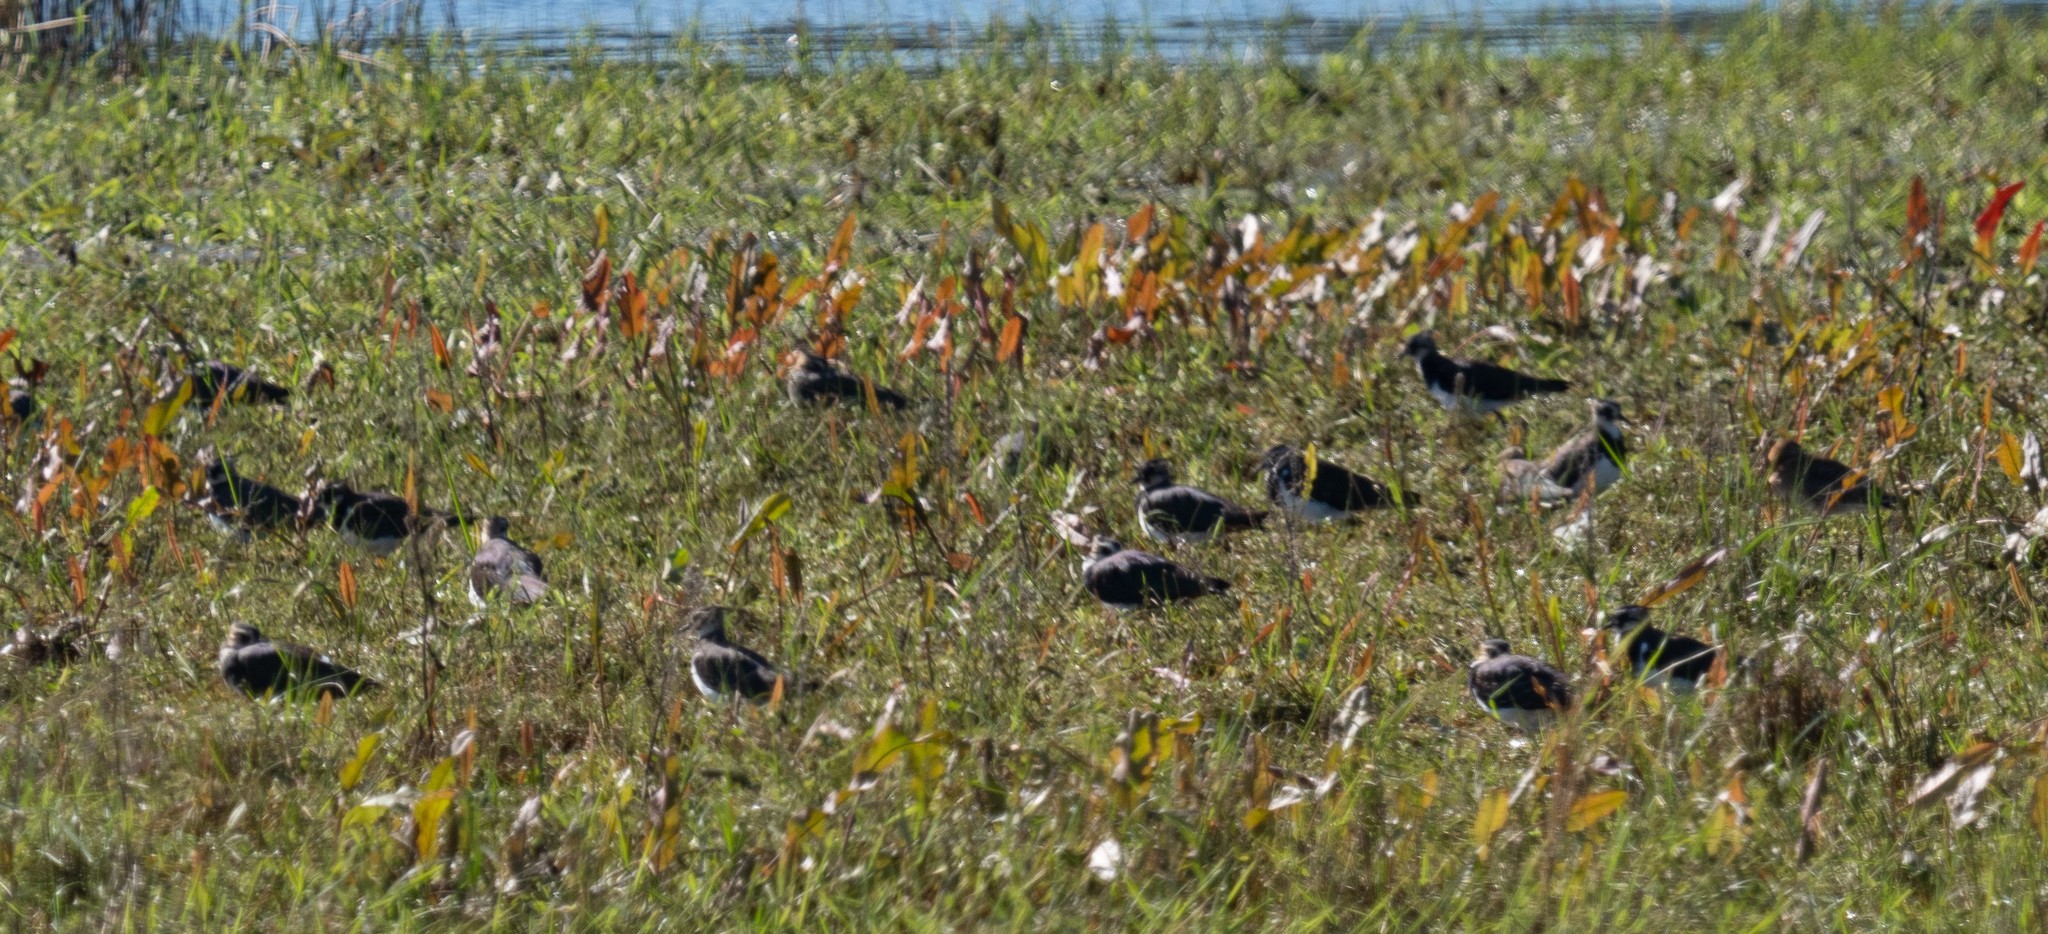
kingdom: Animalia
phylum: Chordata
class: Aves
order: Charadriiformes
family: Charadriidae
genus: Vanellus
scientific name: Vanellus vanellus
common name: Northern lapwing
